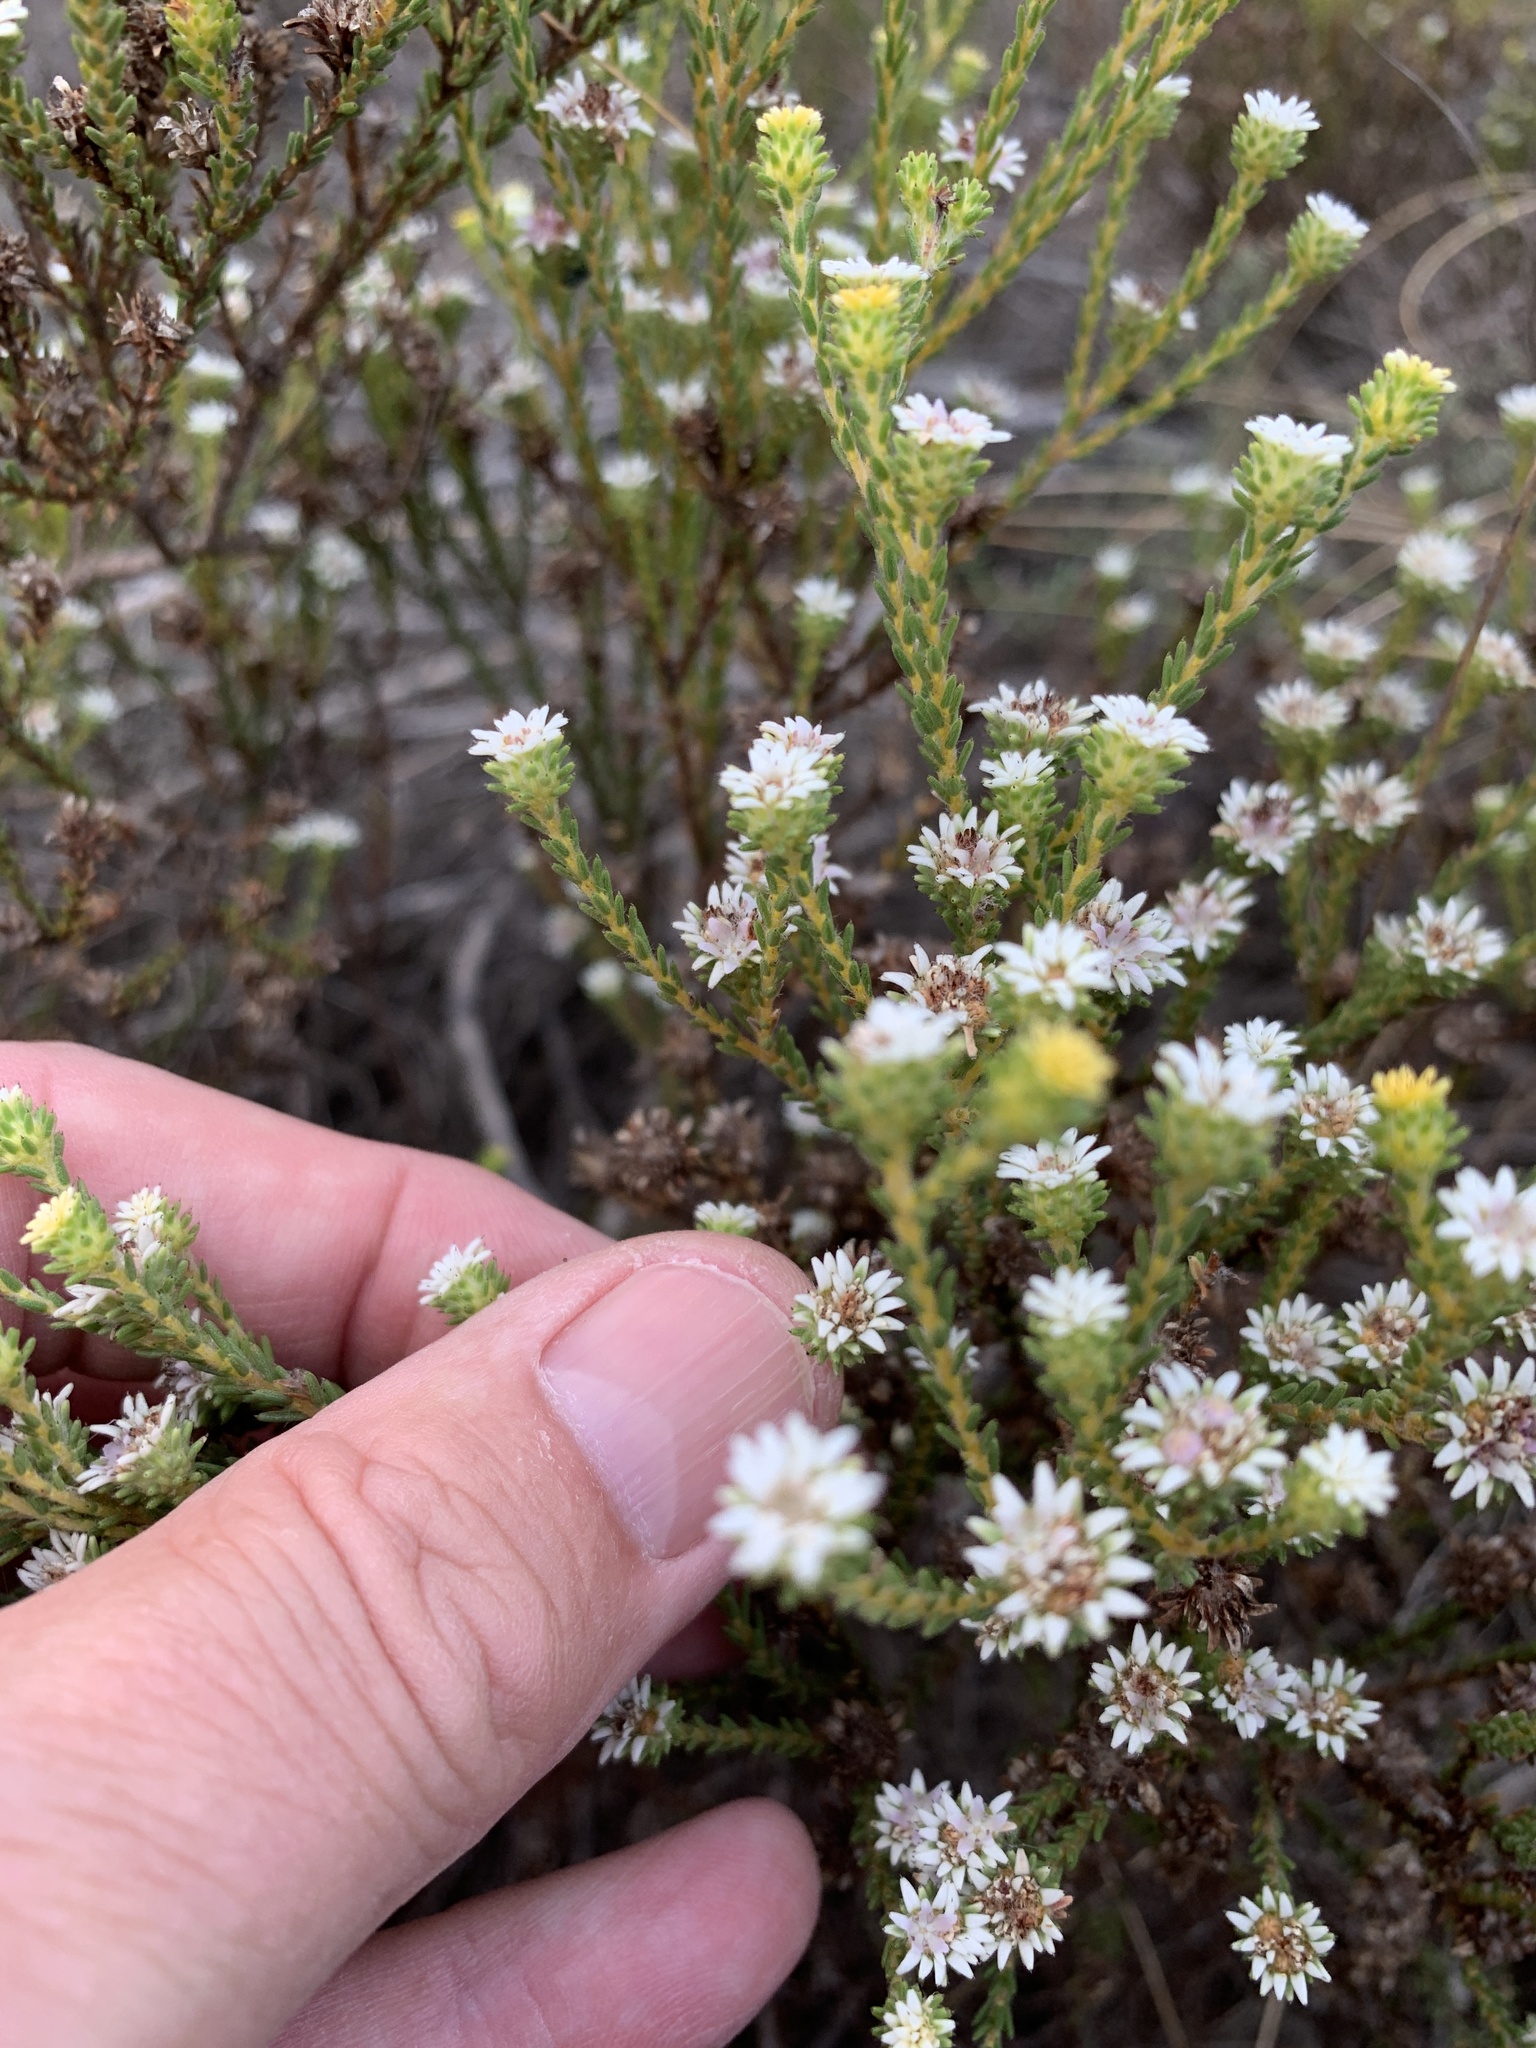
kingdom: Plantae
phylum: Tracheophyta
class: Magnoliopsida
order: Bruniales
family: Bruniaceae
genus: Staavia
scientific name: Staavia radiata
